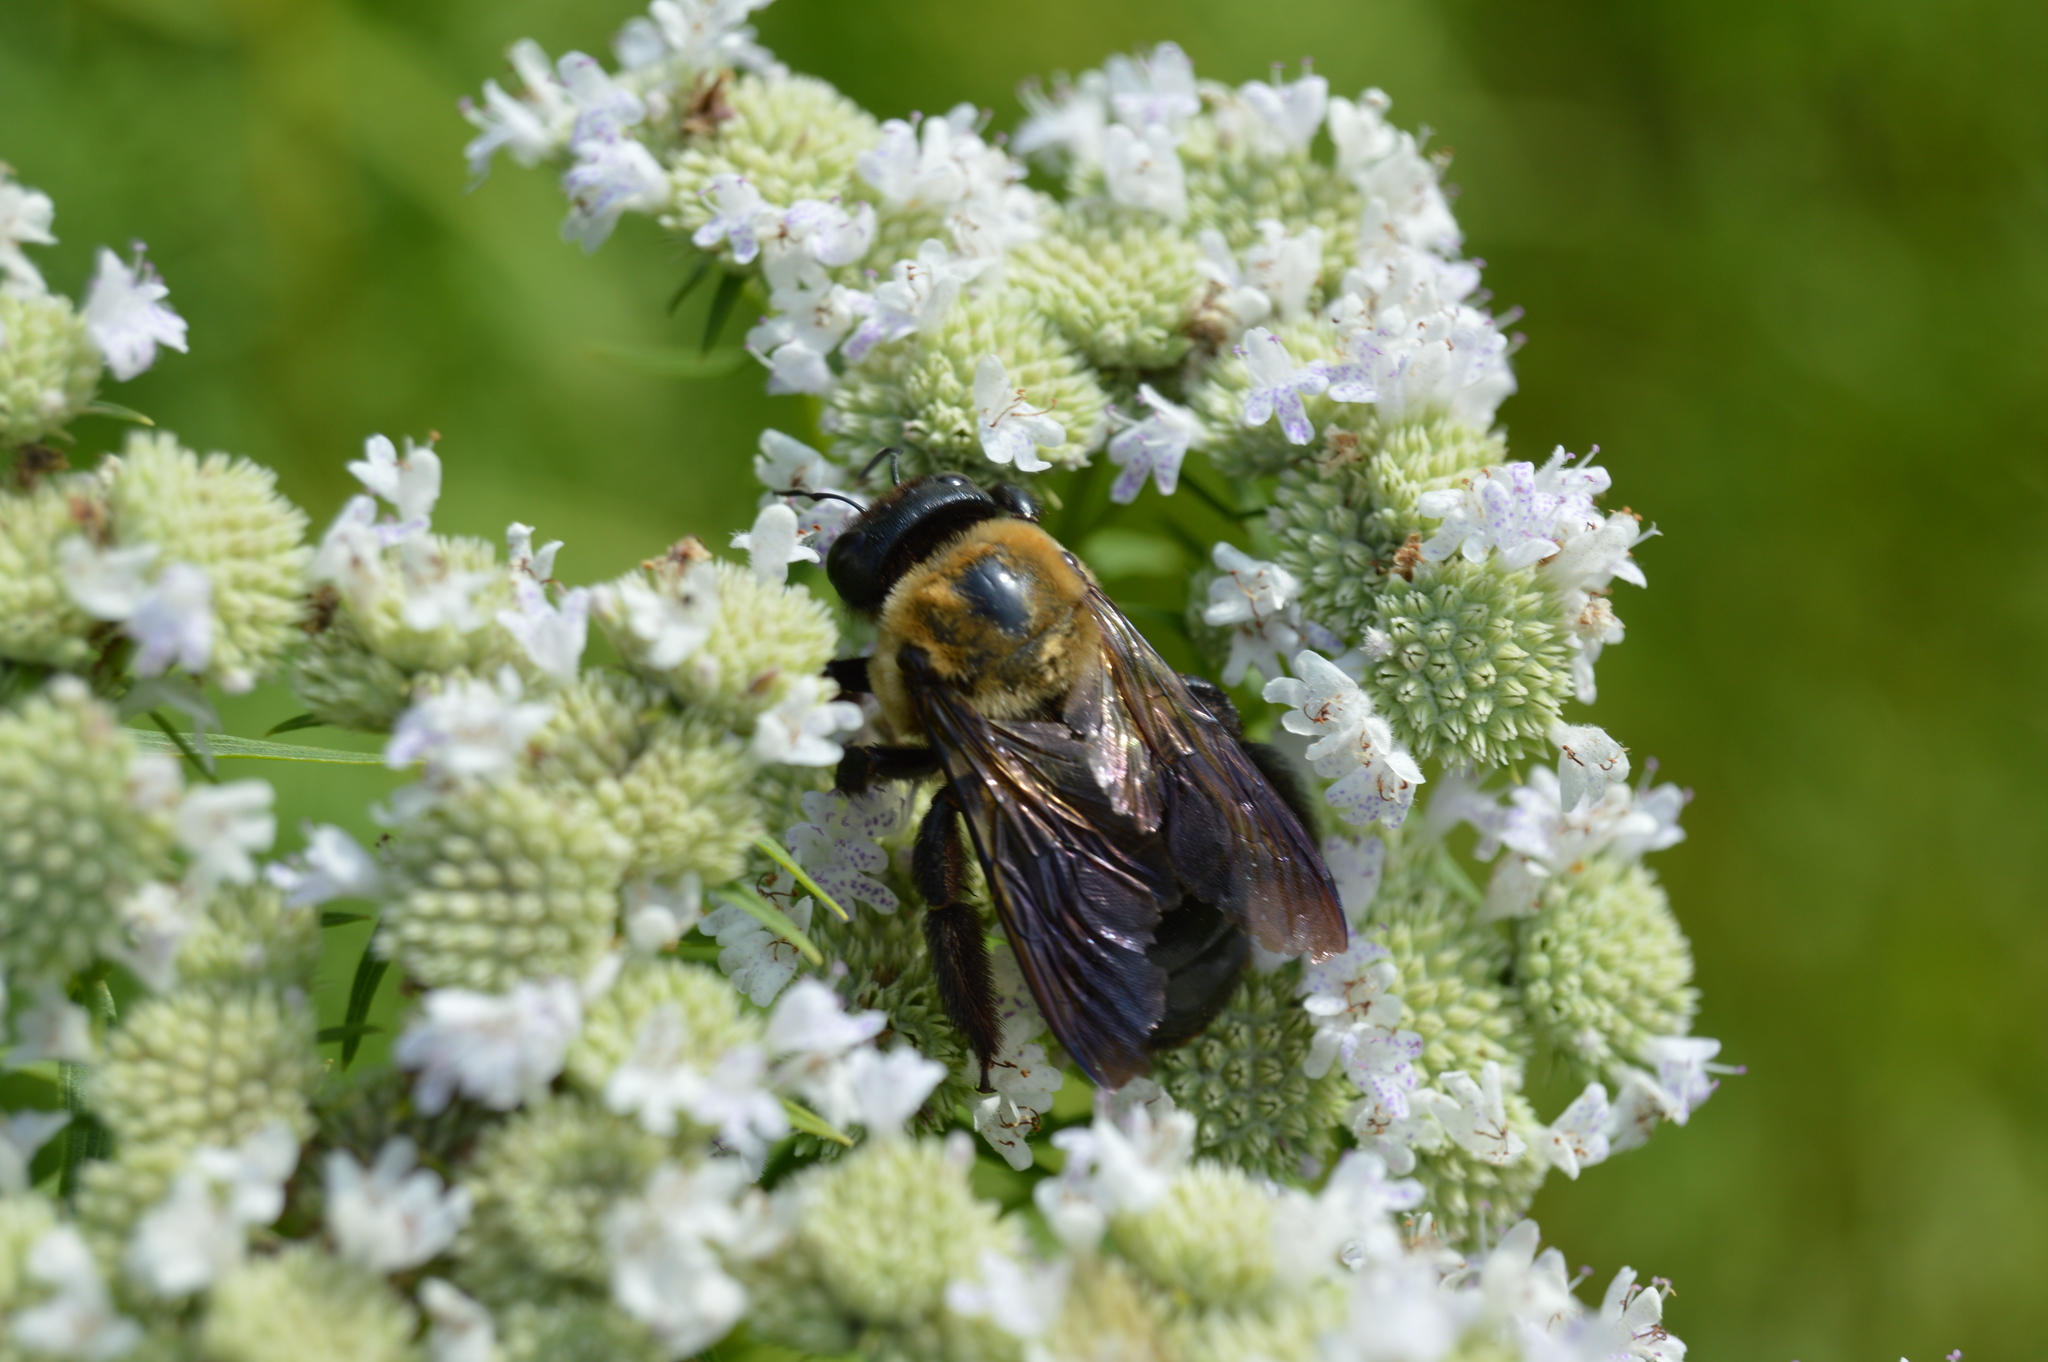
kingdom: Animalia
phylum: Arthropoda
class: Insecta
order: Hymenoptera
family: Apidae
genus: Xylocopa
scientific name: Xylocopa virginica
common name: Carpenter bee
